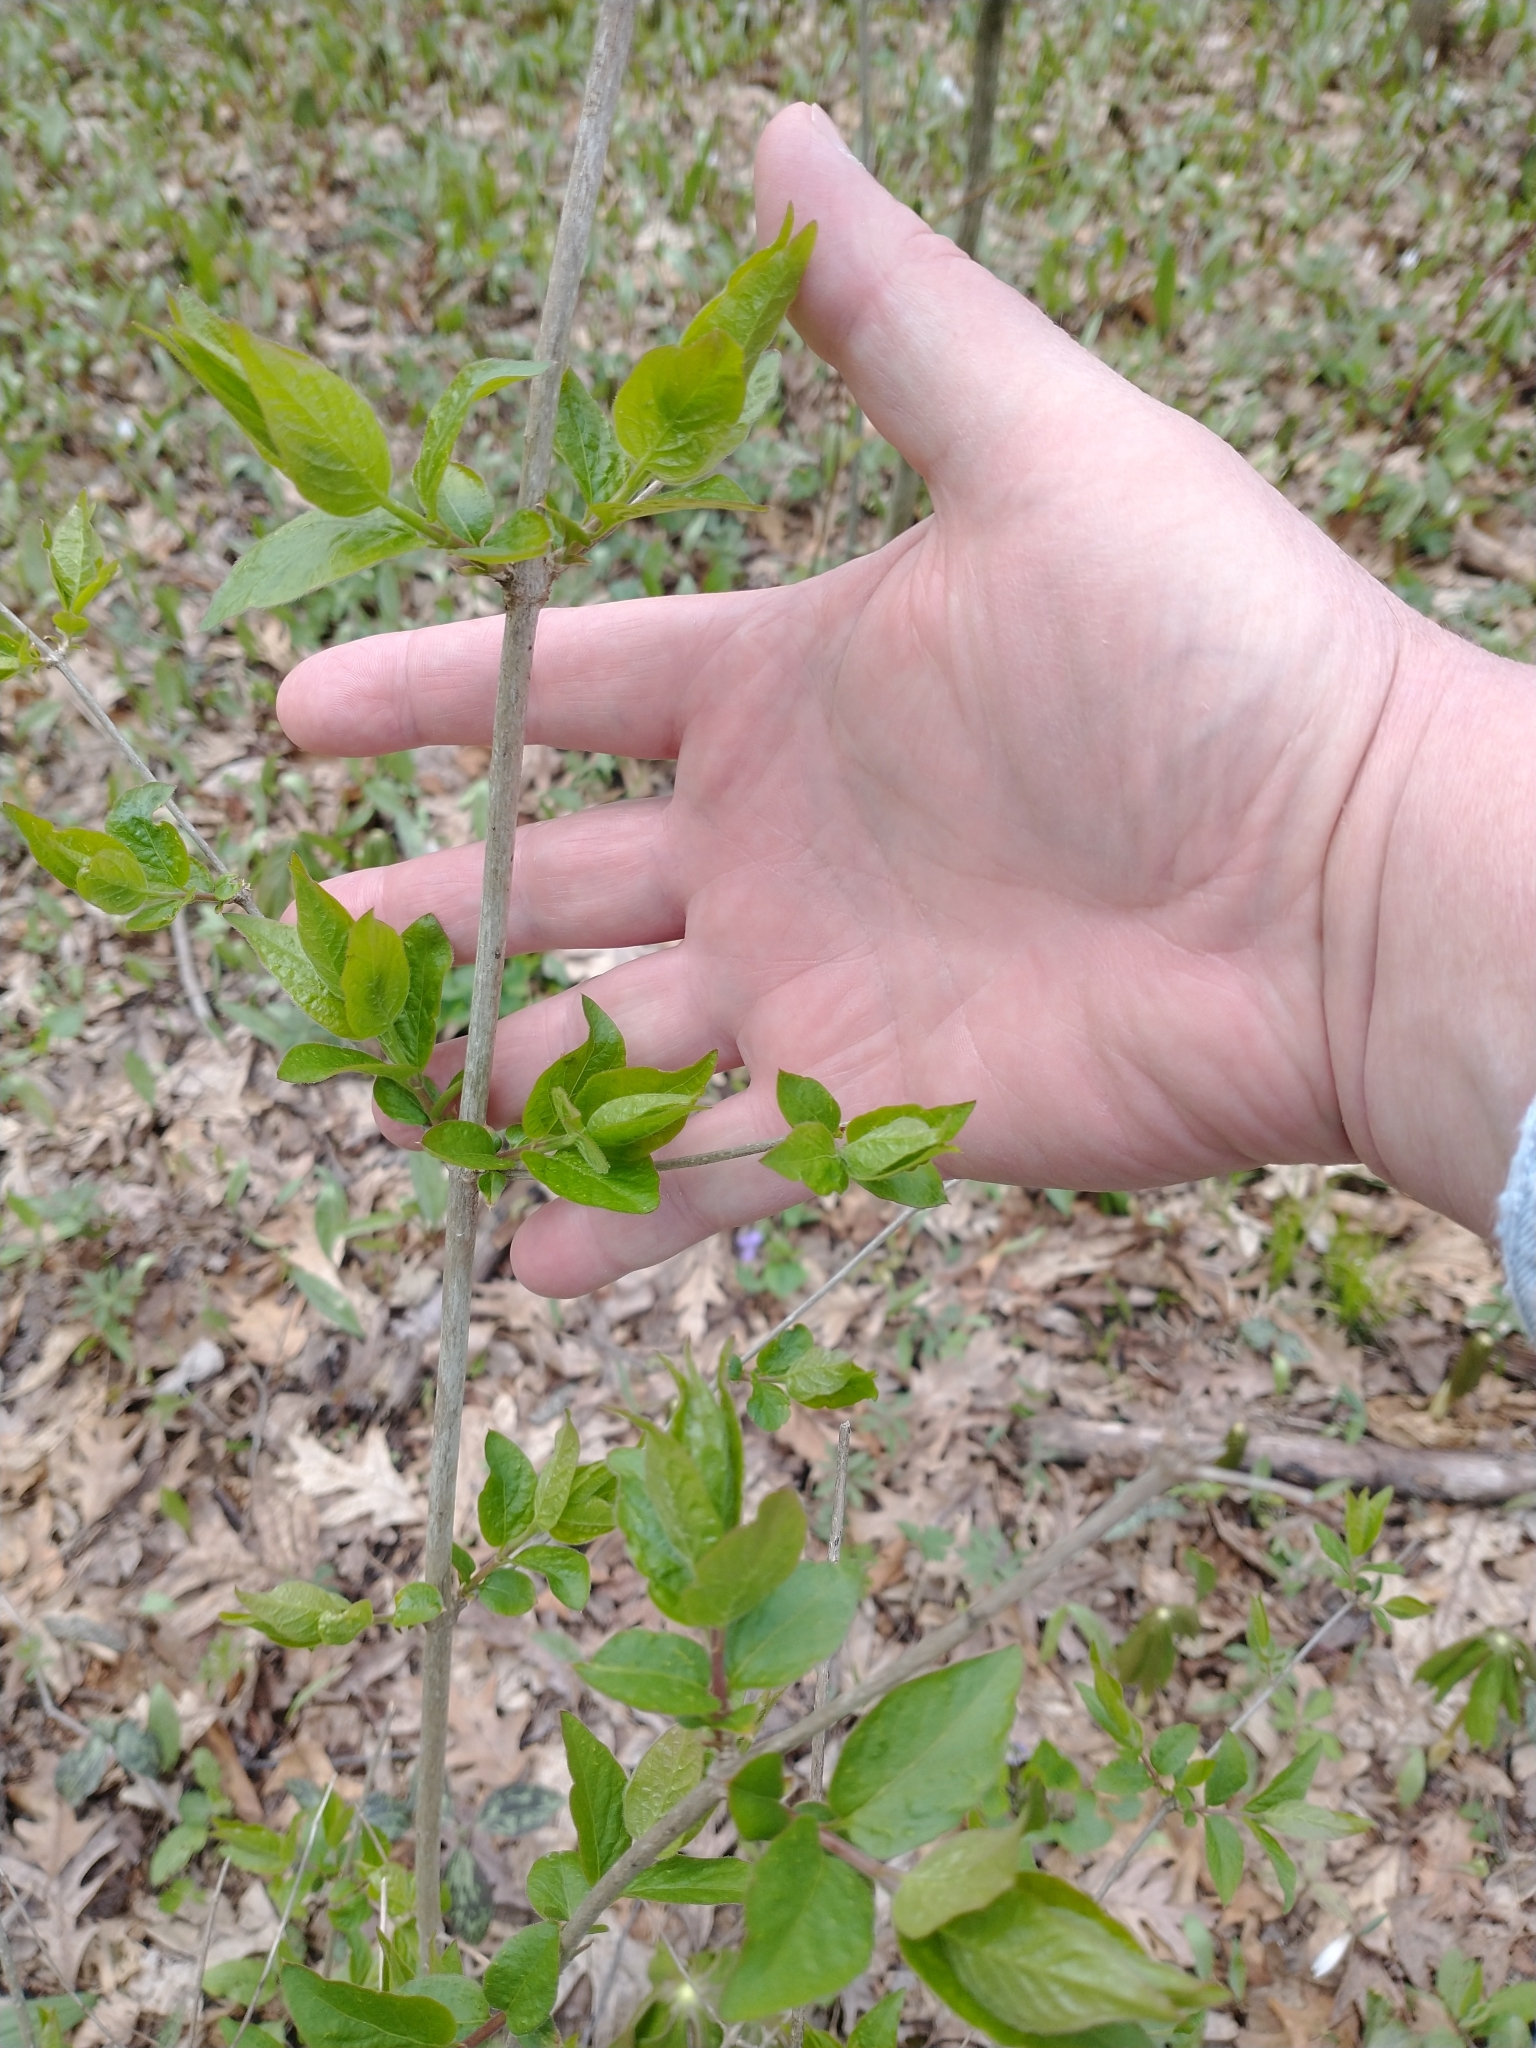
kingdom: Plantae
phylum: Tracheophyta
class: Magnoliopsida
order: Dipsacales
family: Caprifoliaceae
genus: Lonicera
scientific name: Lonicera maackii
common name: Amur honeysuckle
